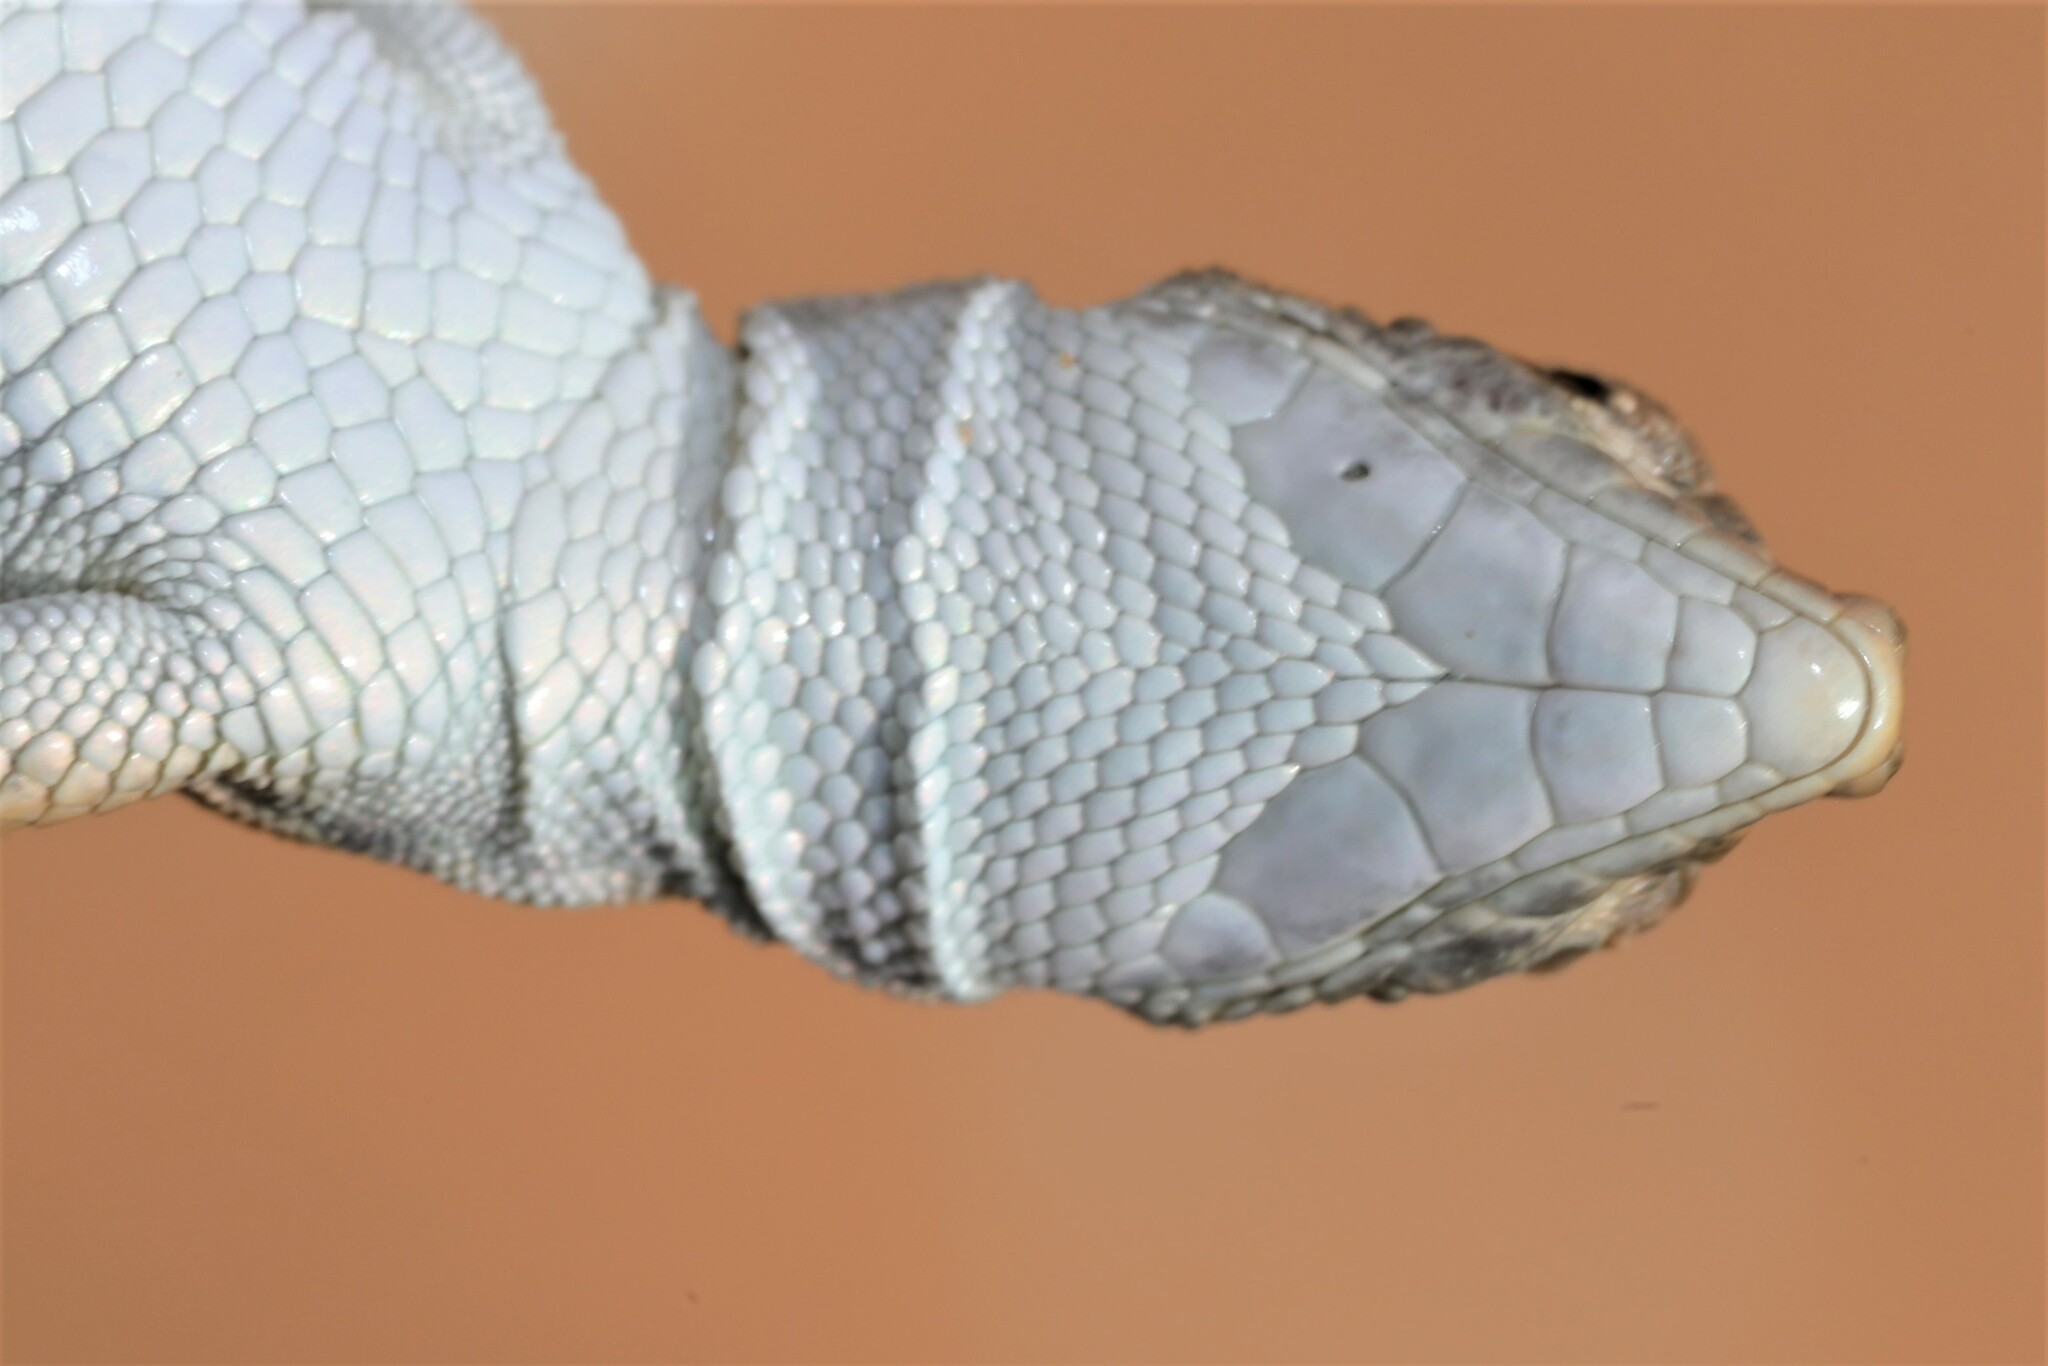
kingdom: Animalia
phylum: Chordata
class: Squamata
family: Lacertidae
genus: Mesalina
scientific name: Mesalina saudiarabica
